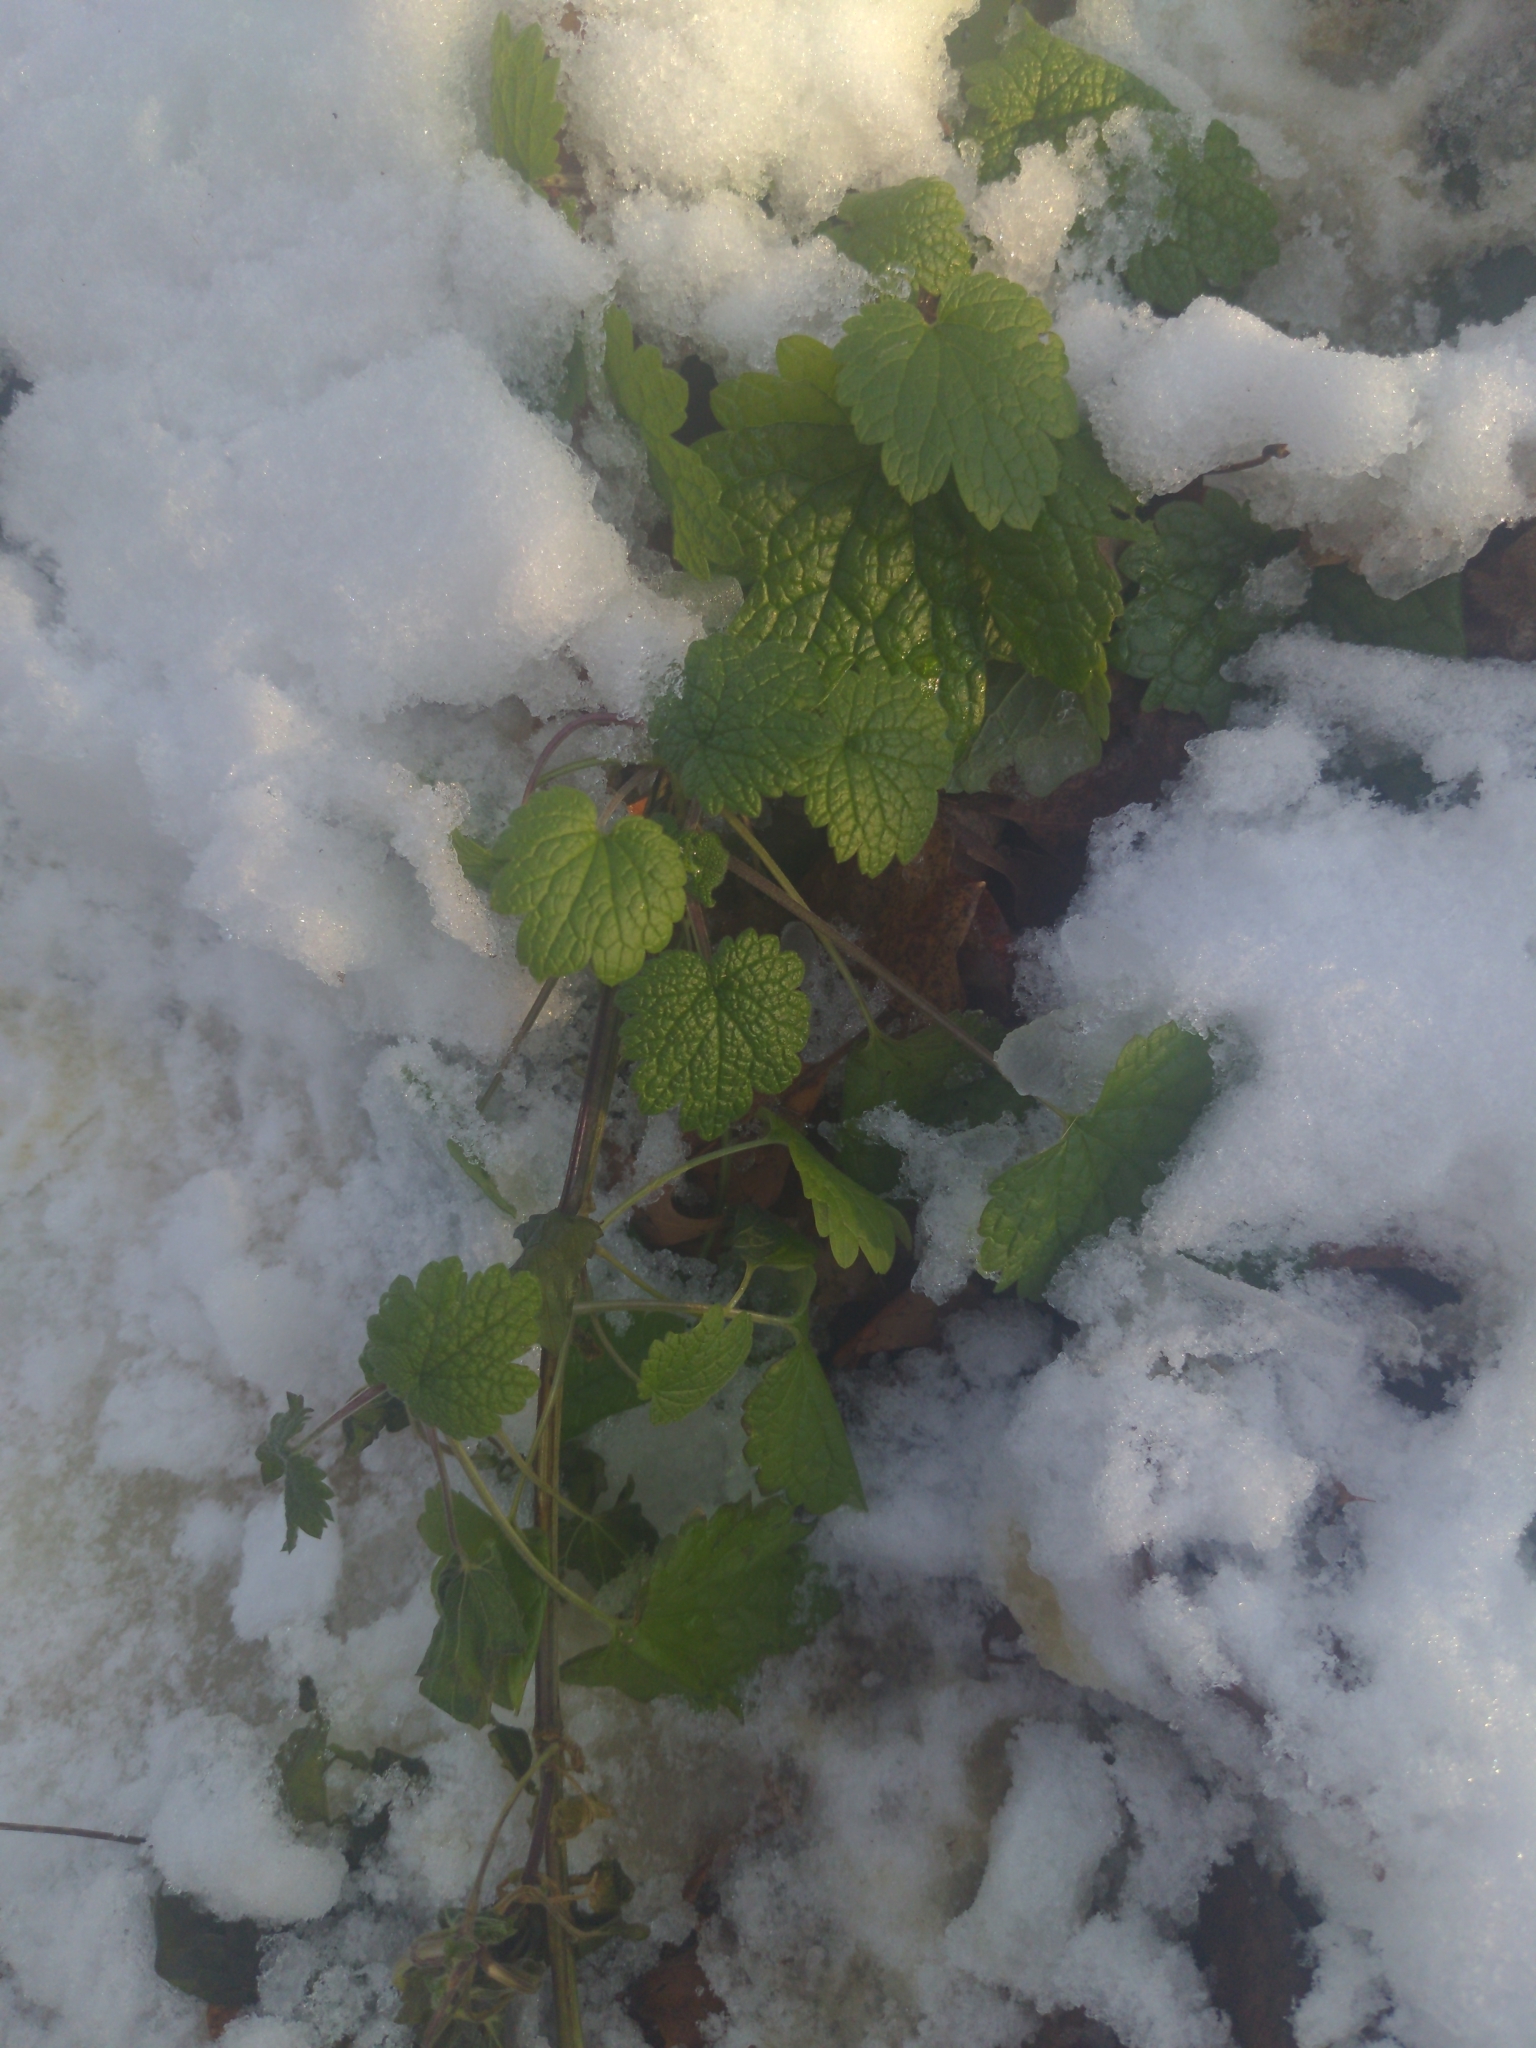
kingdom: Plantae
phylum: Tracheophyta
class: Magnoliopsida
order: Lamiales
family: Lamiaceae
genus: Leonurus
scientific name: Leonurus cardiaca
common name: Motherwort
